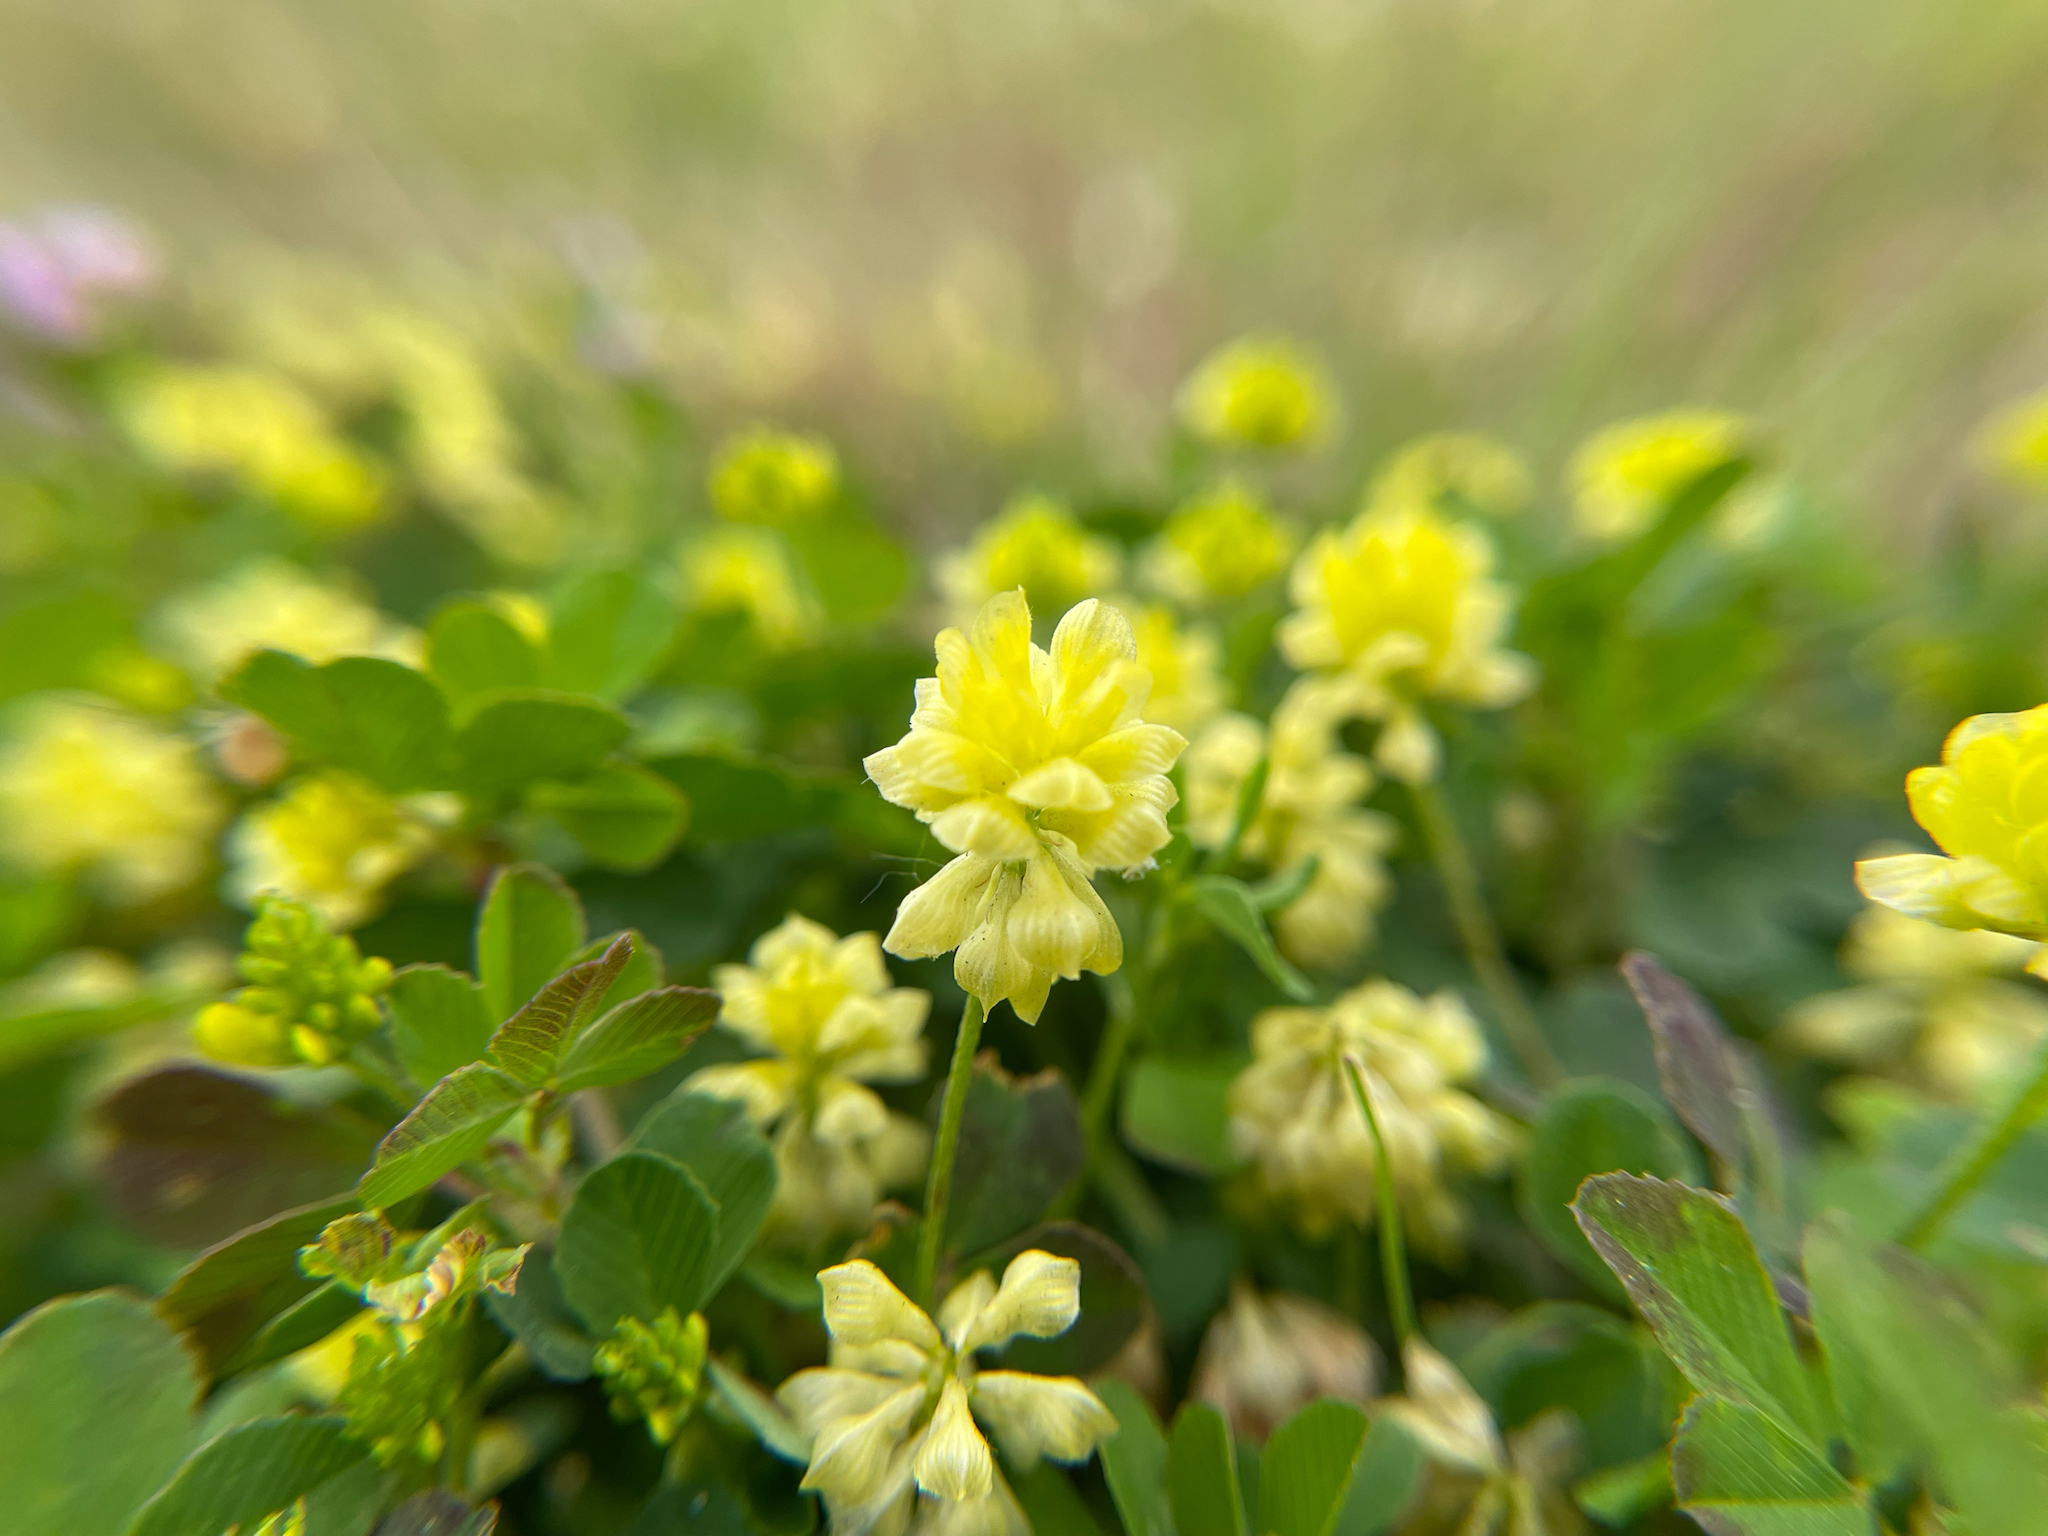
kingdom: Plantae
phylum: Tracheophyta
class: Magnoliopsida
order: Fabales
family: Fabaceae
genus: Trifolium
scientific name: Trifolium campestre
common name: Field clover
